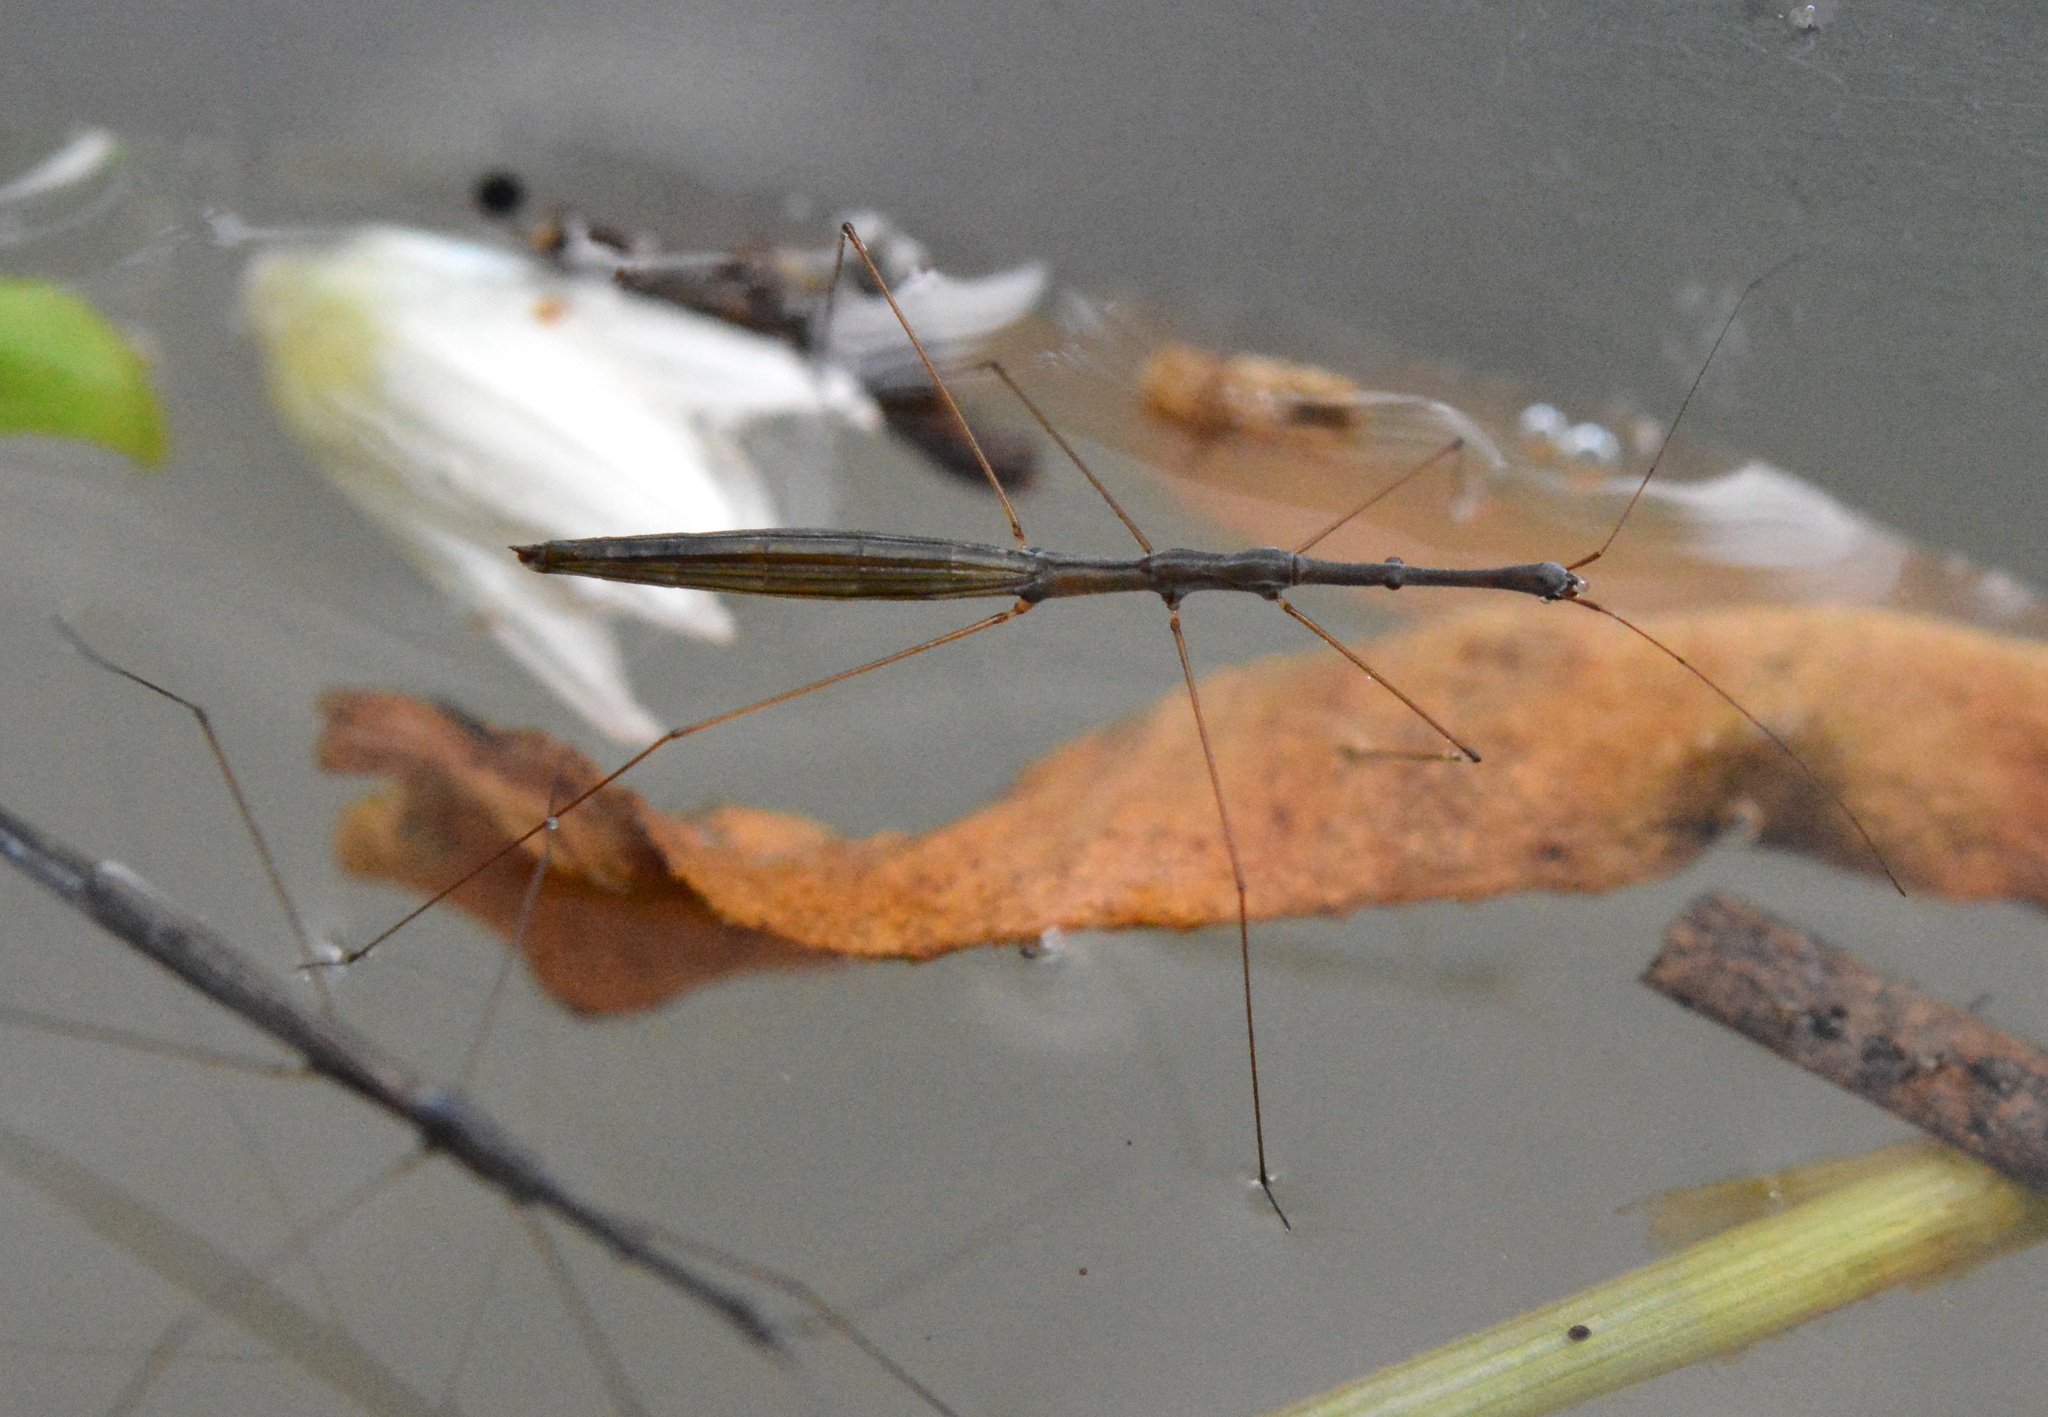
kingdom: Animalia
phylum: Arthropoda
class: Insecta
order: Hemiptera
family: Hydrometridae
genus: Hydrometra
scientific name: Hydrometra
